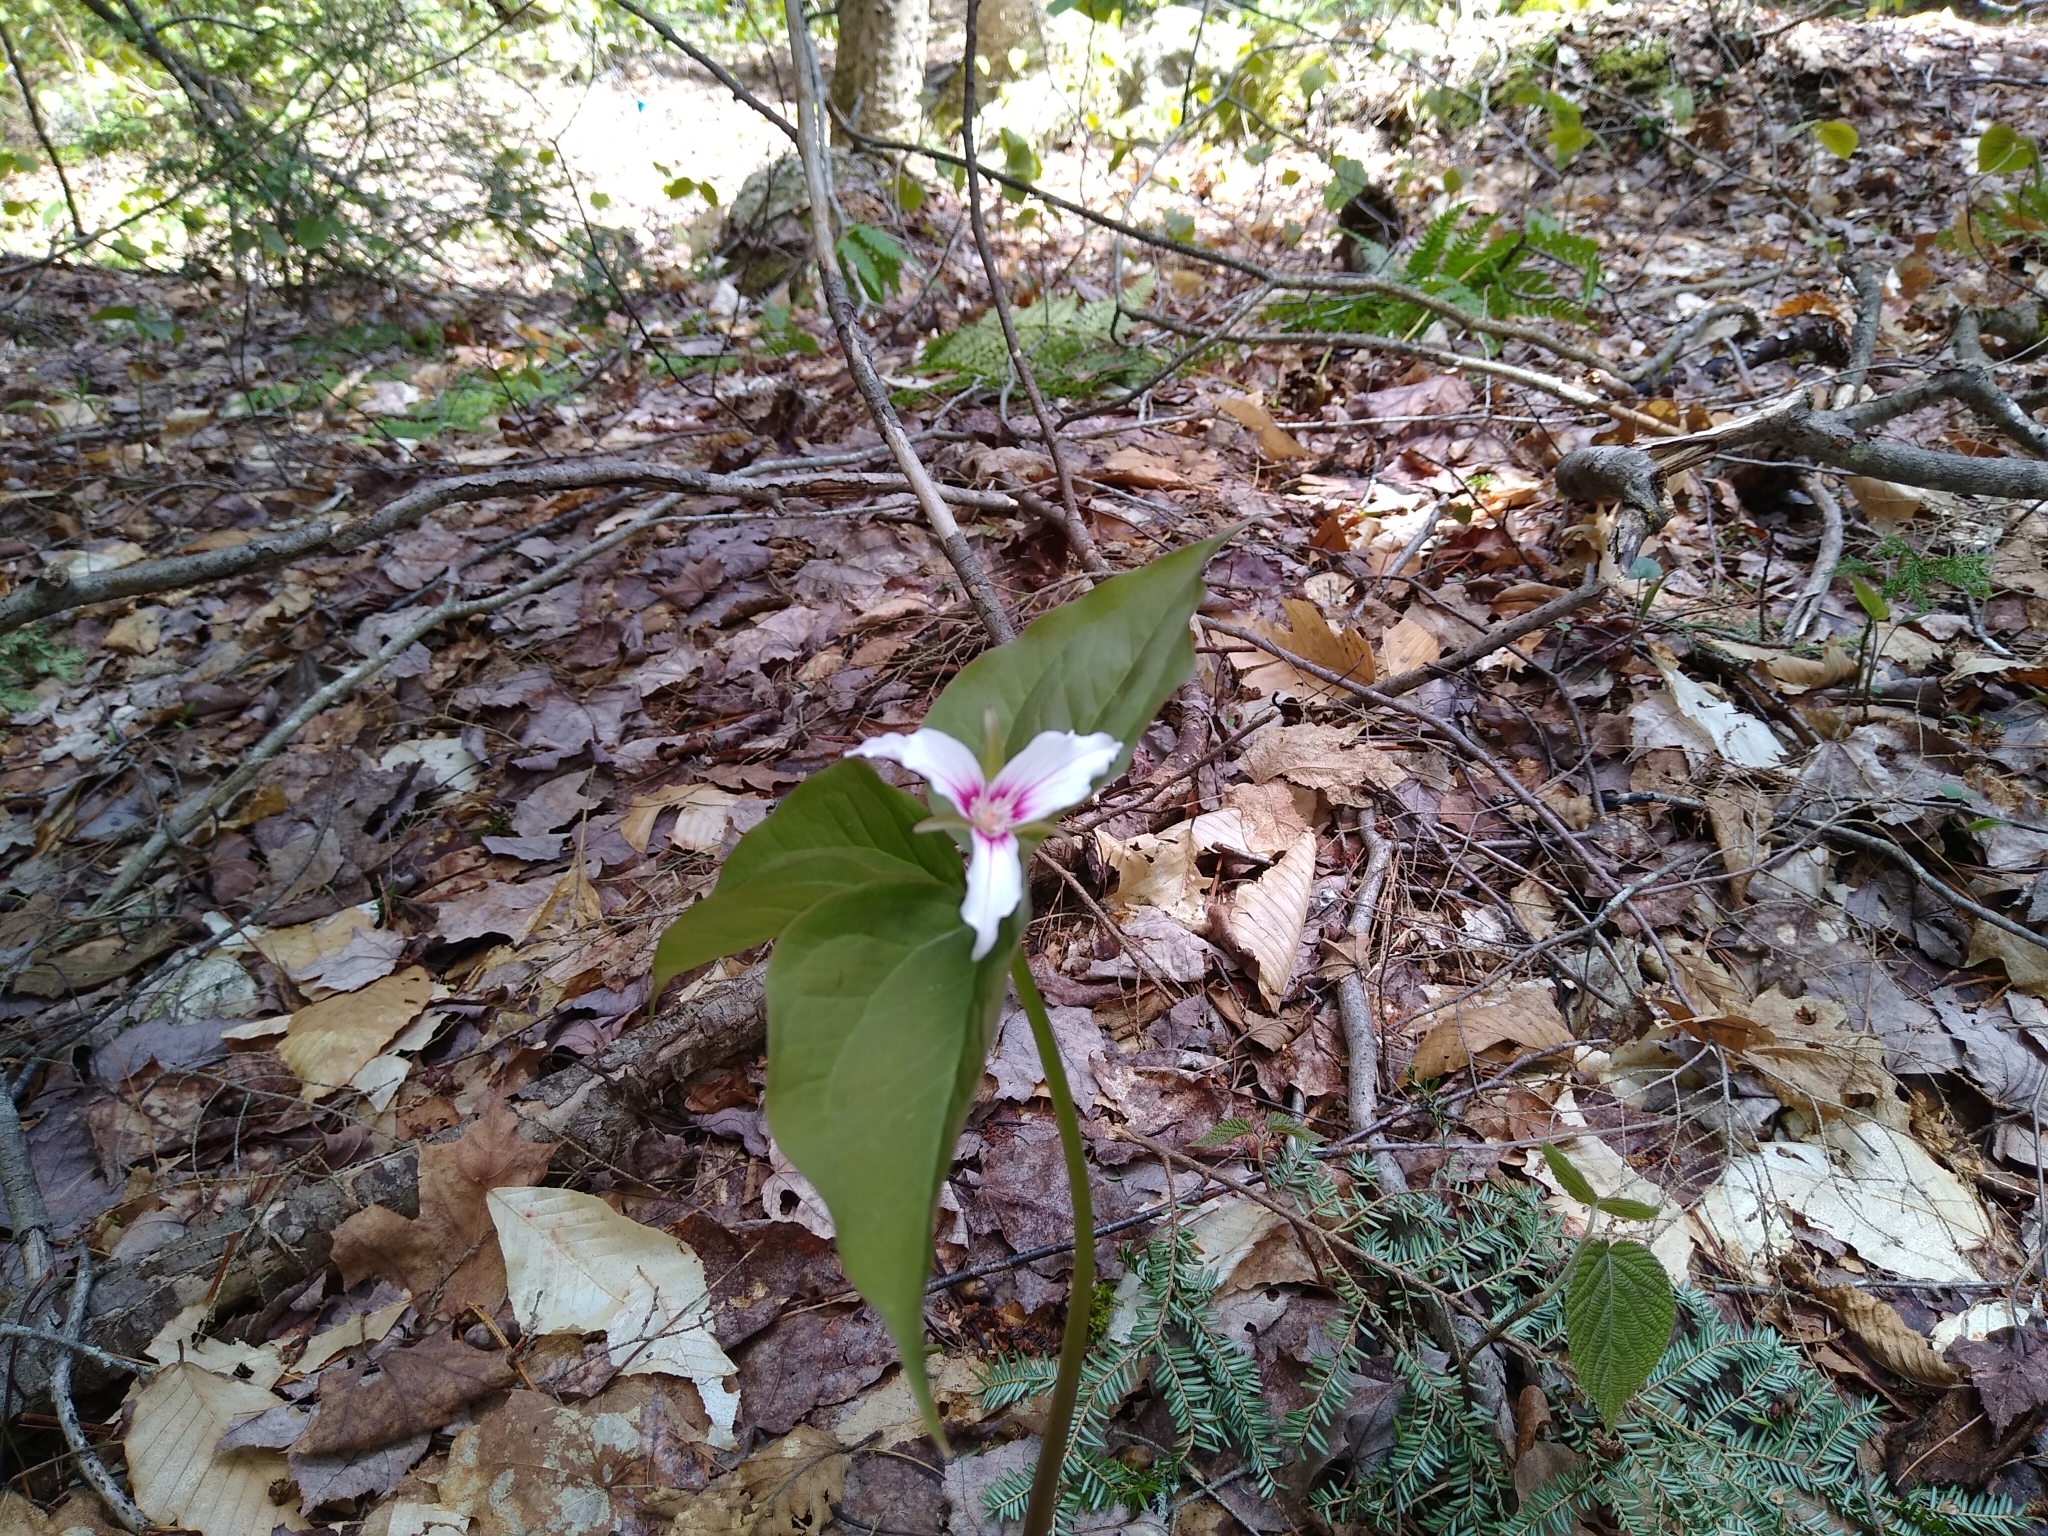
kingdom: Plantae
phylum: Tracheophyta
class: Liliopsida
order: Liliales
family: Melanthiaceae
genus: Trillium
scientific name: Trillium undulatum
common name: Paint trillium
